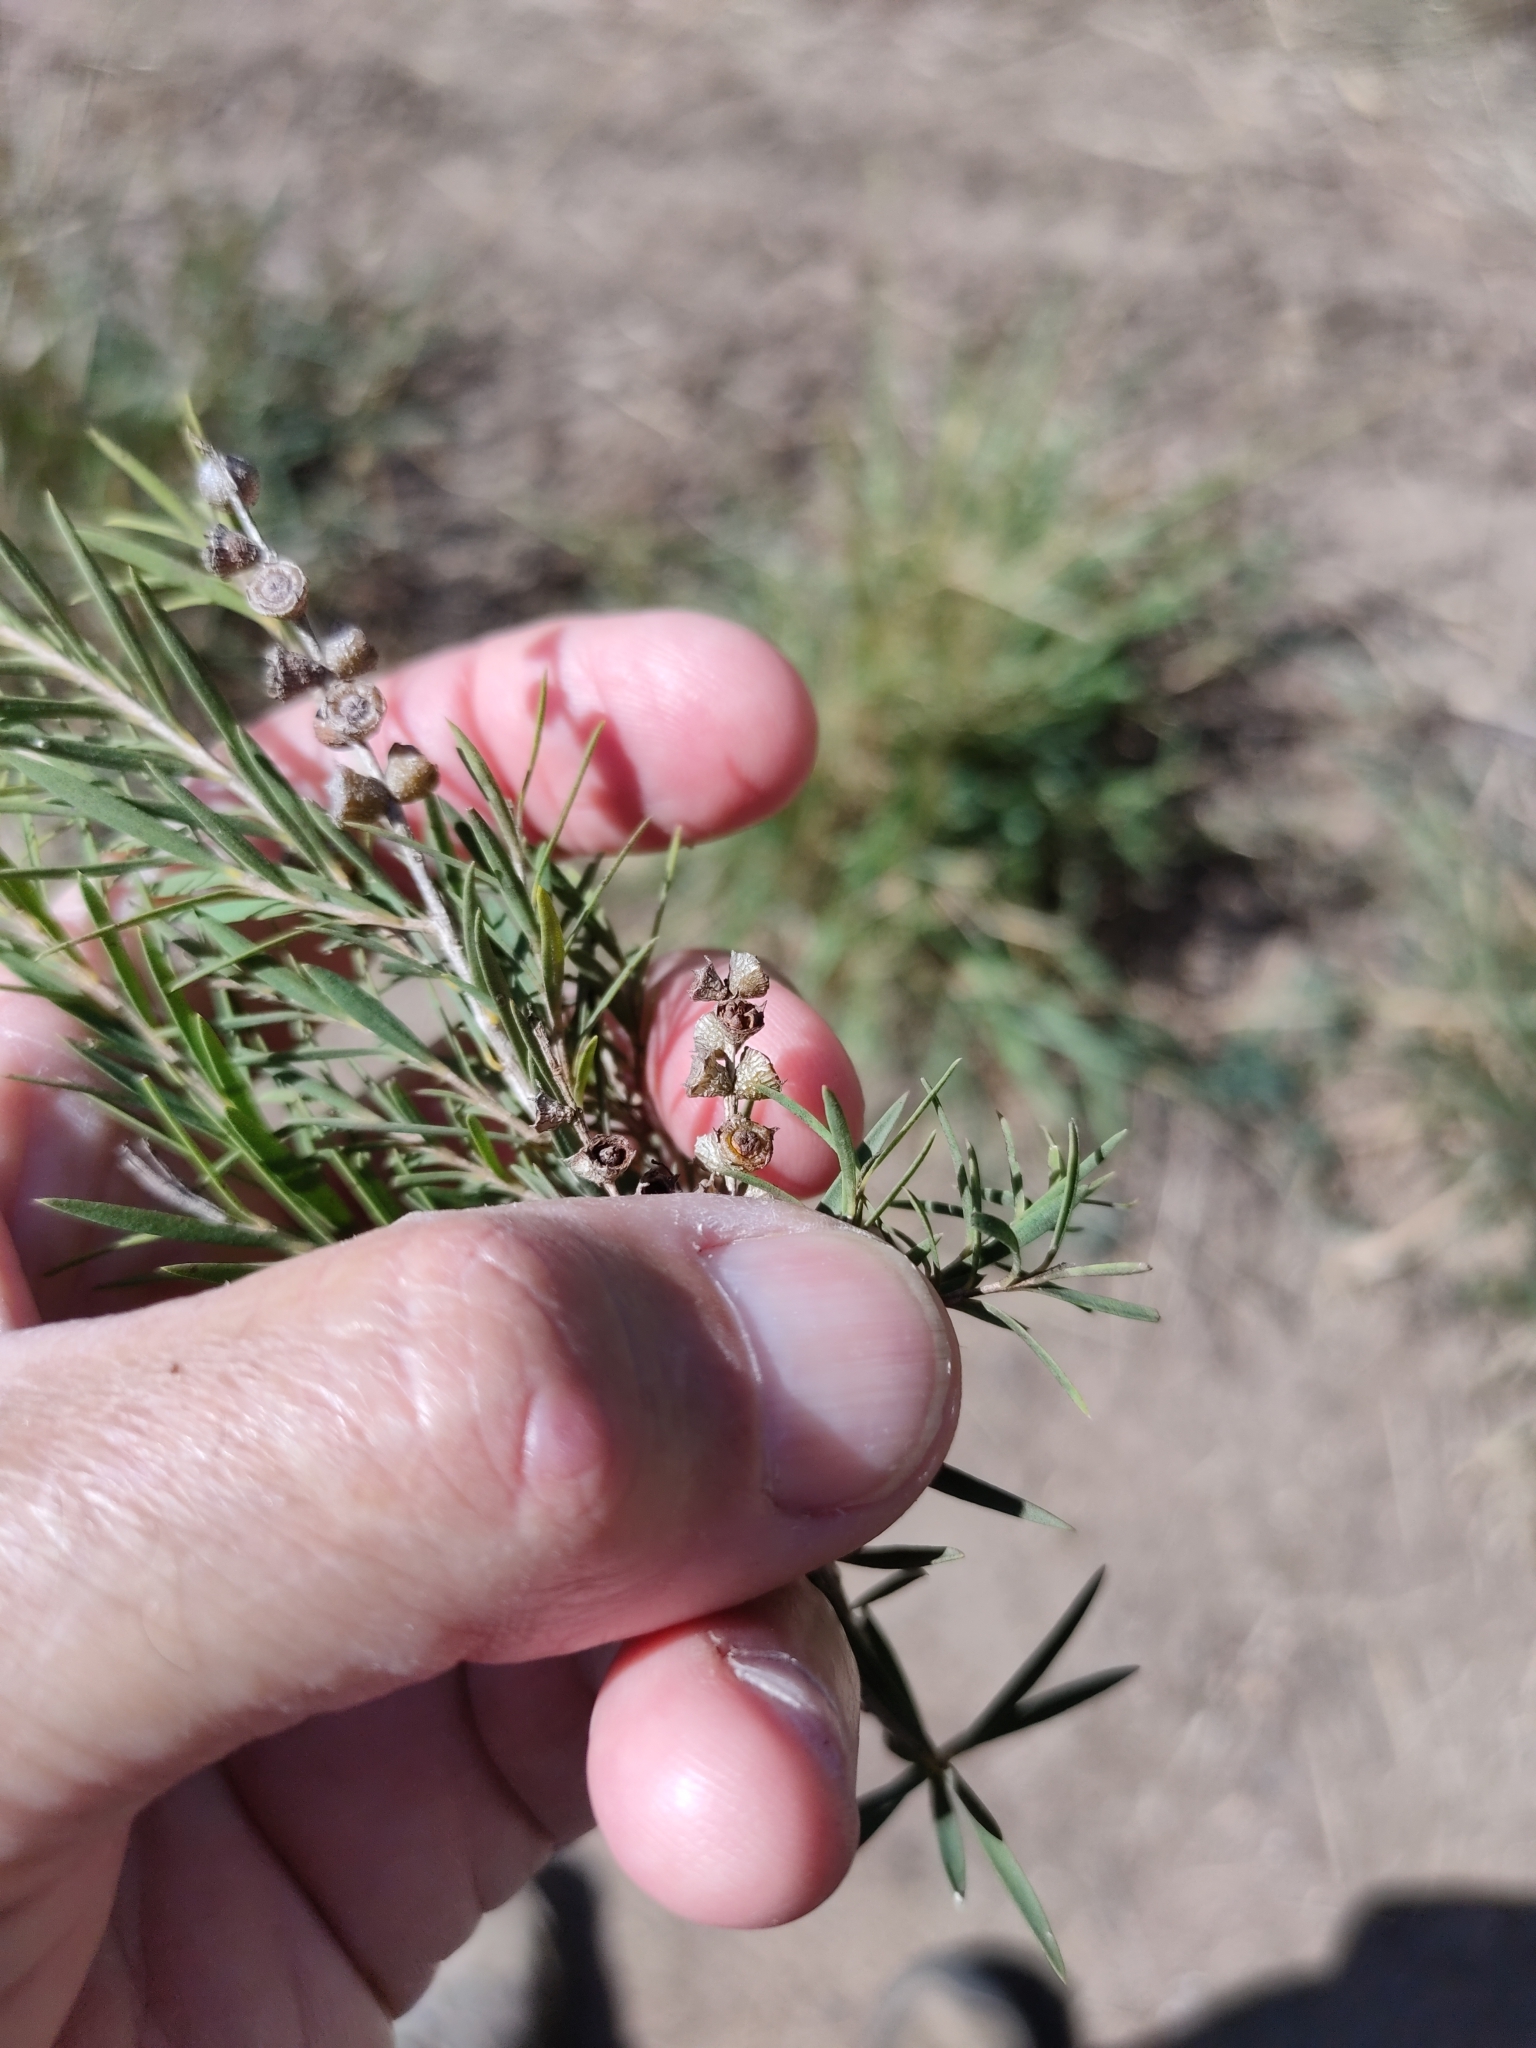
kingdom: Plantae
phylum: Tracheophyta
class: Magnoliopsida
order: Myrtales
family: Myrtaceae
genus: Melaleuca
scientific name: Melaleuca trichostachya
